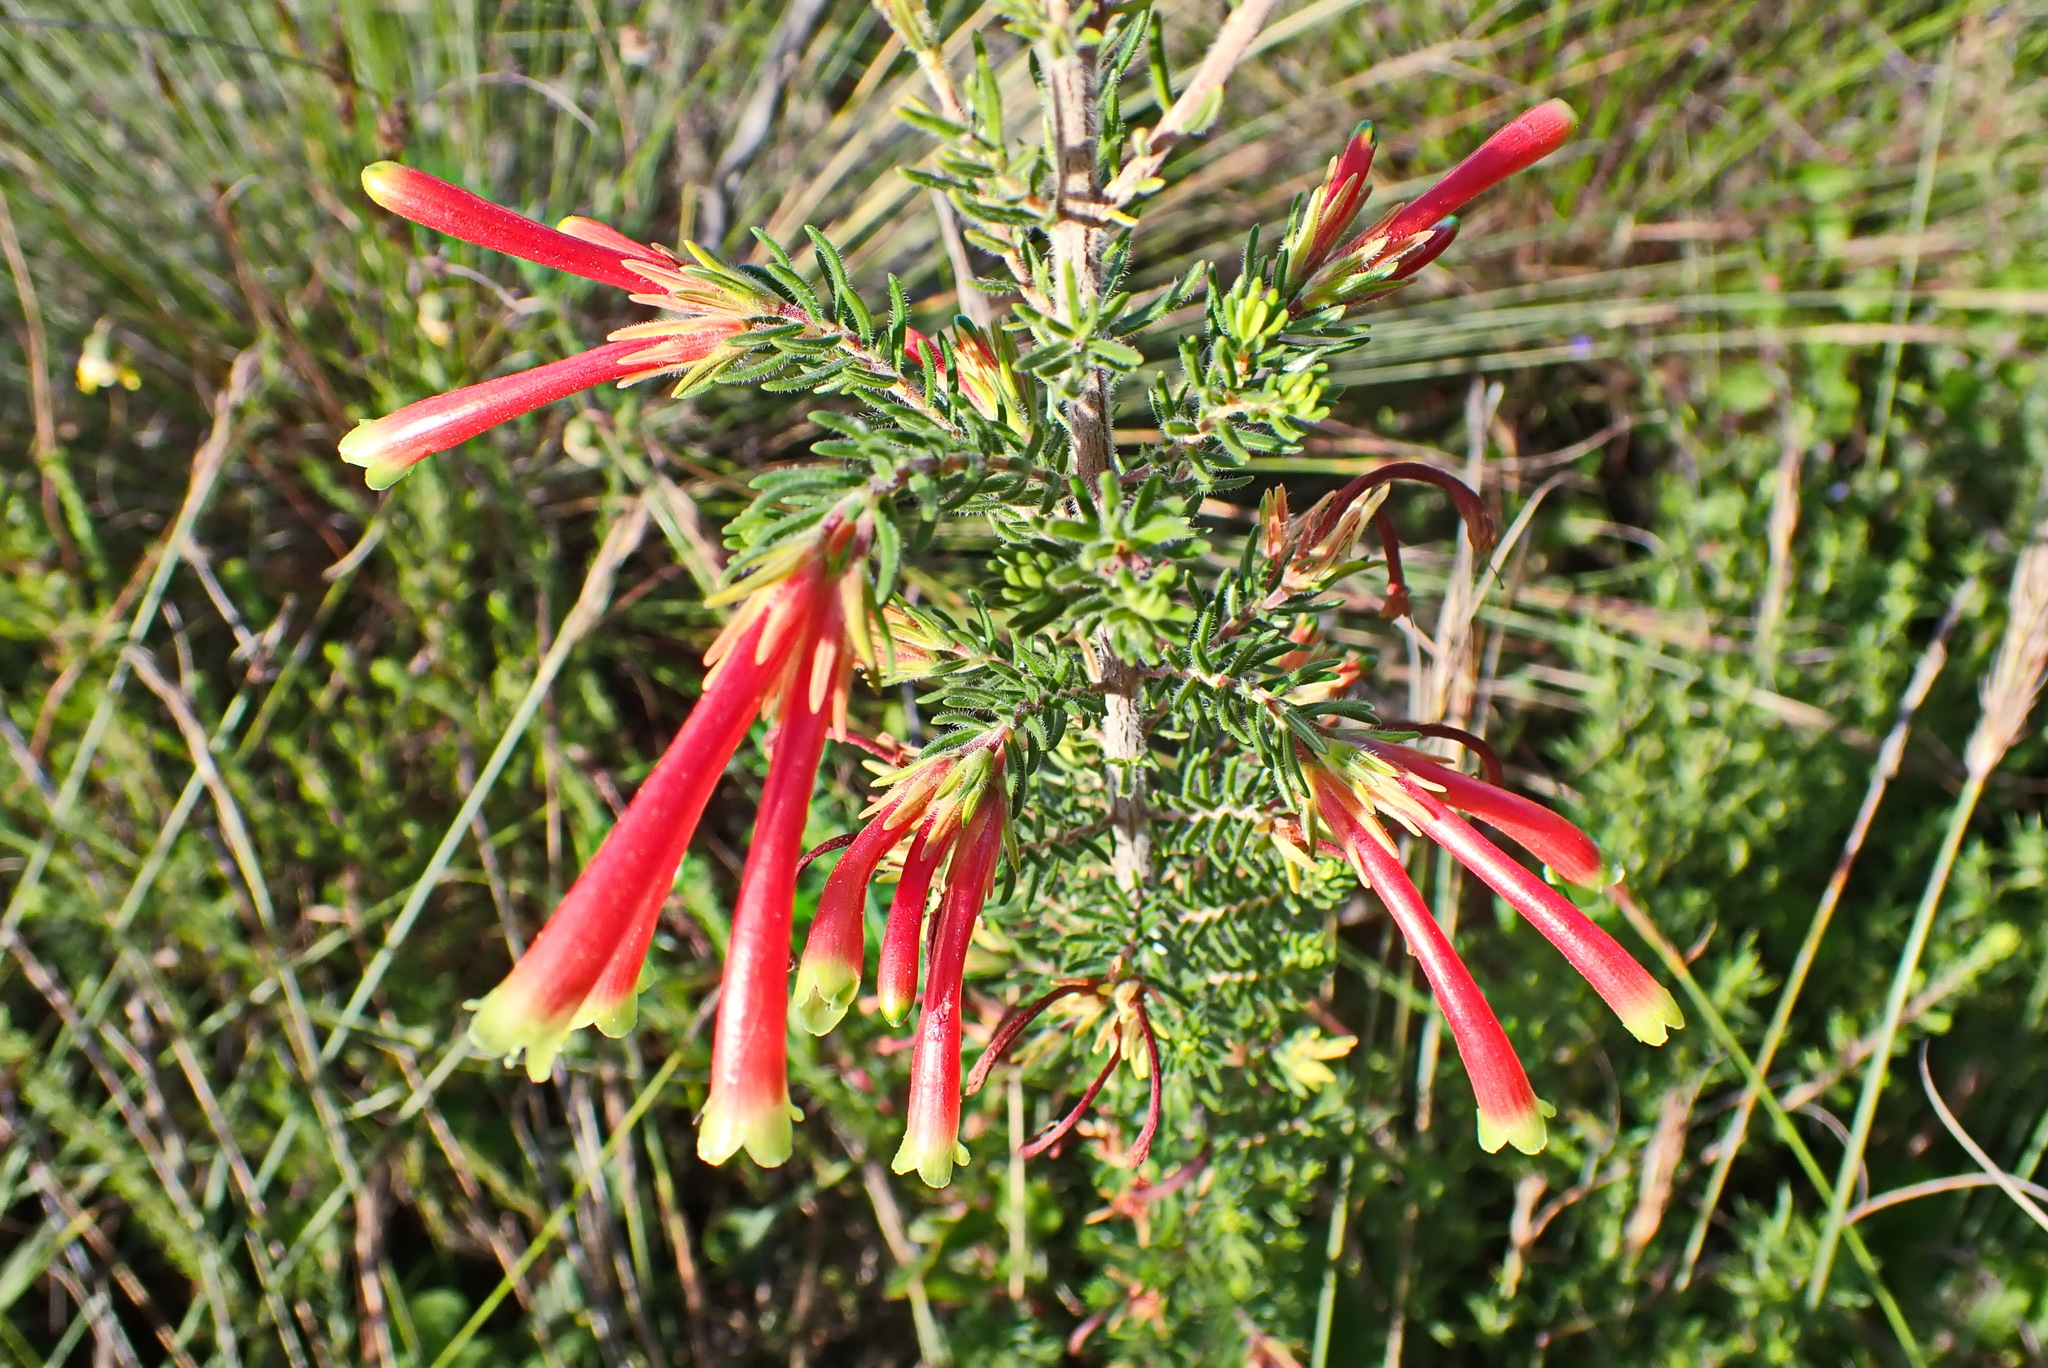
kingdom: Plantae
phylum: Tracheophyta
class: Magnoliopsida
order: Ericales
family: Ericaceae
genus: Erica
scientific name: Erica discolor
